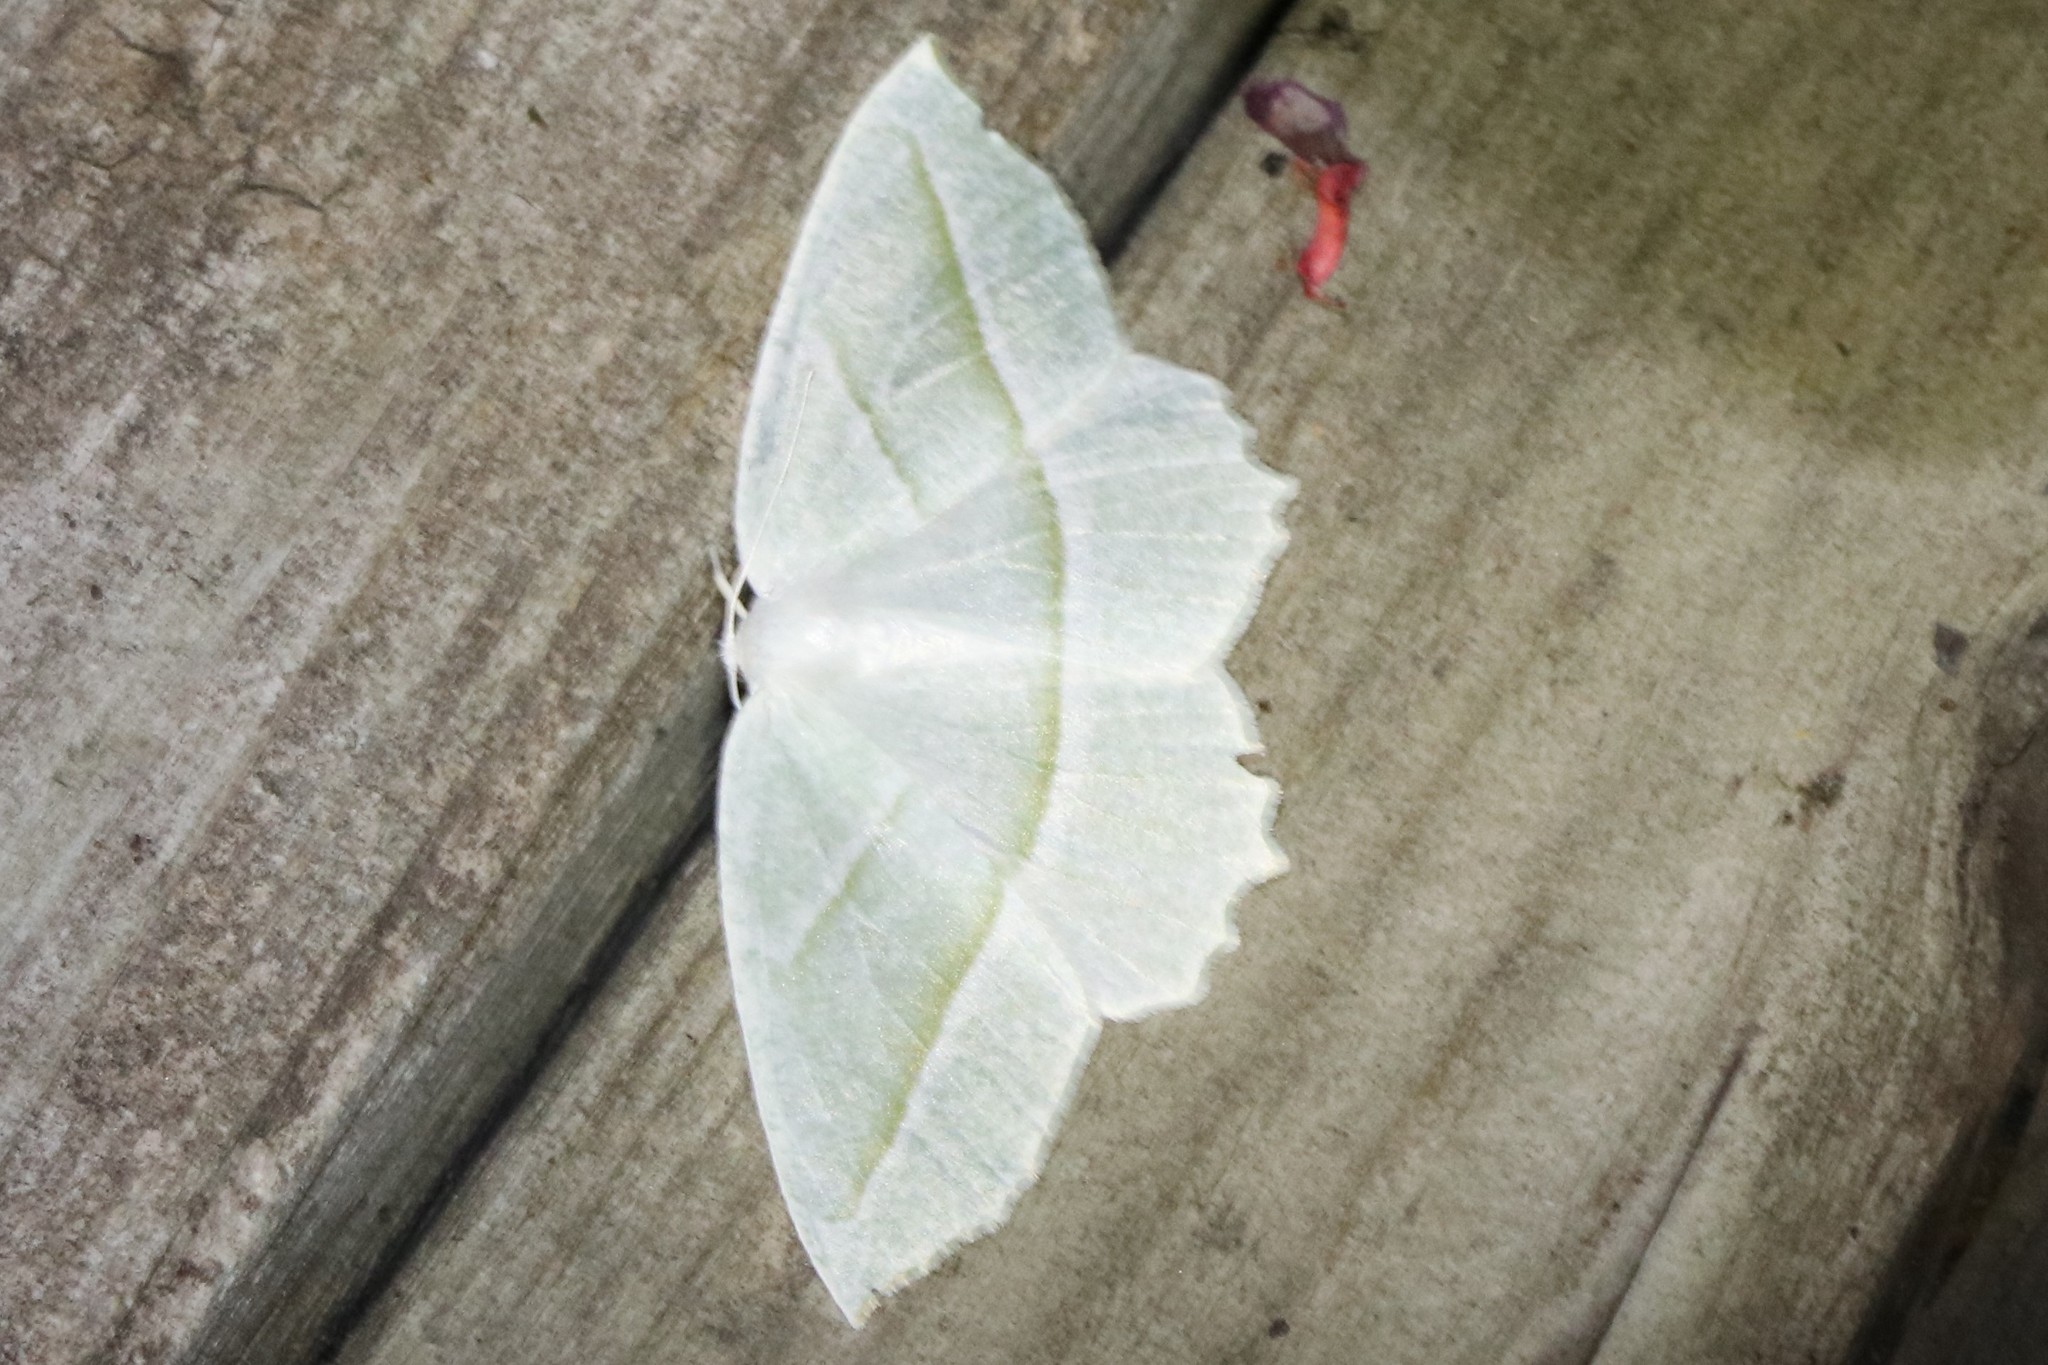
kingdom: Animalia
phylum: Arthropoda
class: Insecta
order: Lepidoptera
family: Geometridae
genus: Campaea
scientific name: Campaea perlata
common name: Fringed looper
